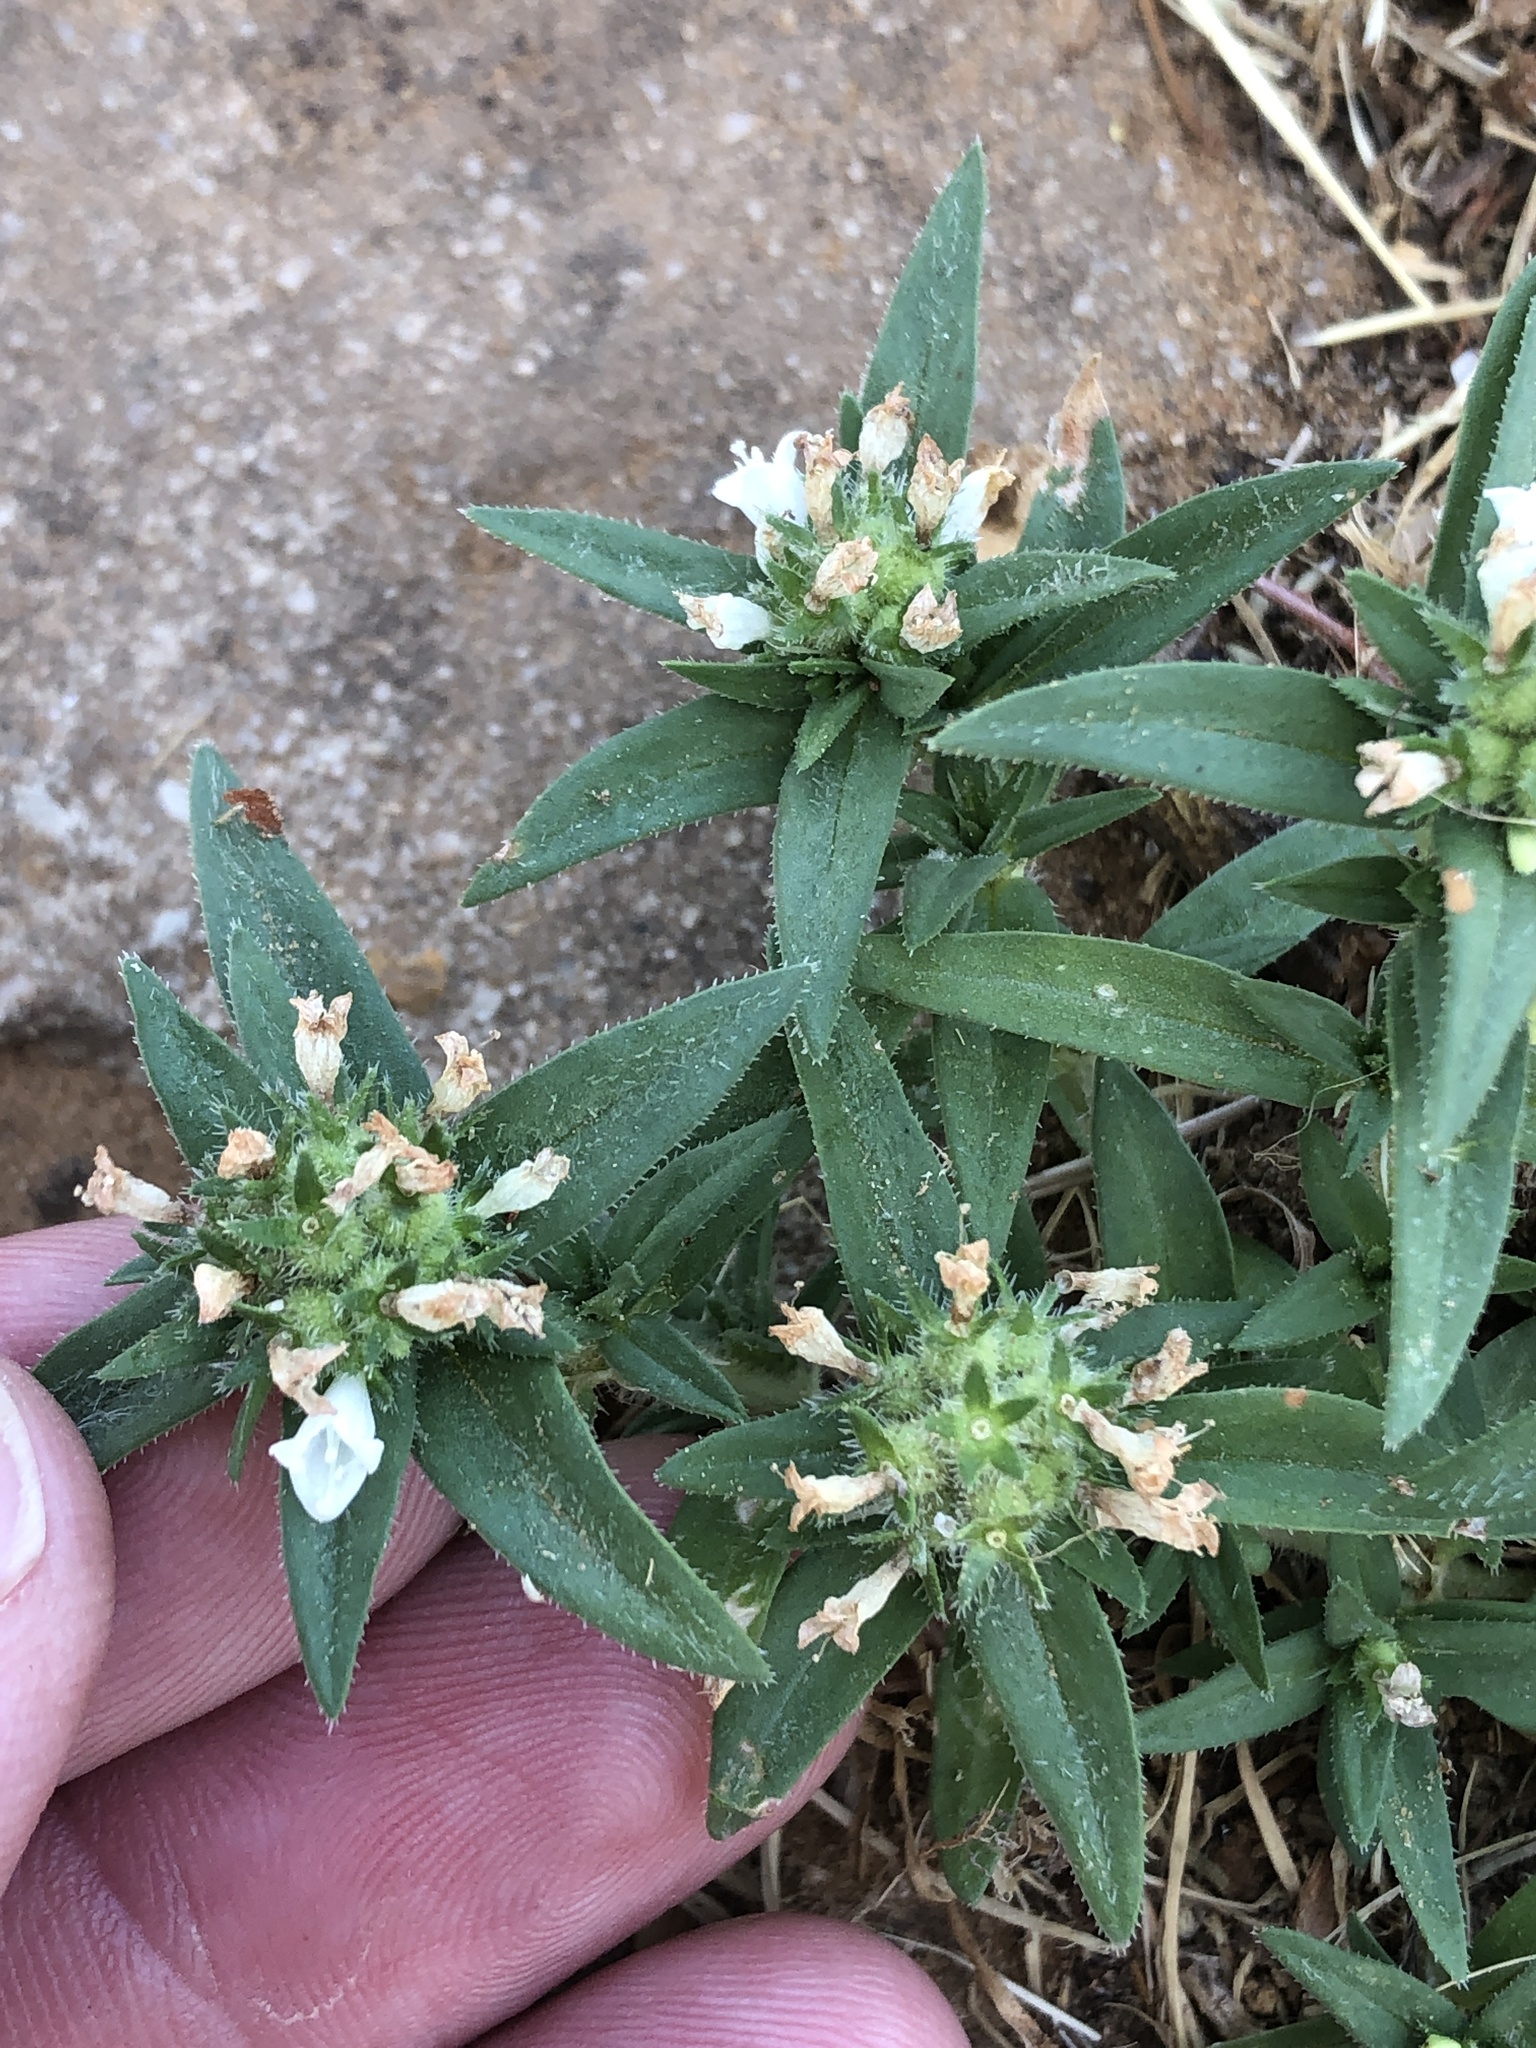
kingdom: Plantae
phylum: Tracheophyta
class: Magnoliopsida
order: Gentianales
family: Rubiaceae
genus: Richardia
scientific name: Richardia tricocca
